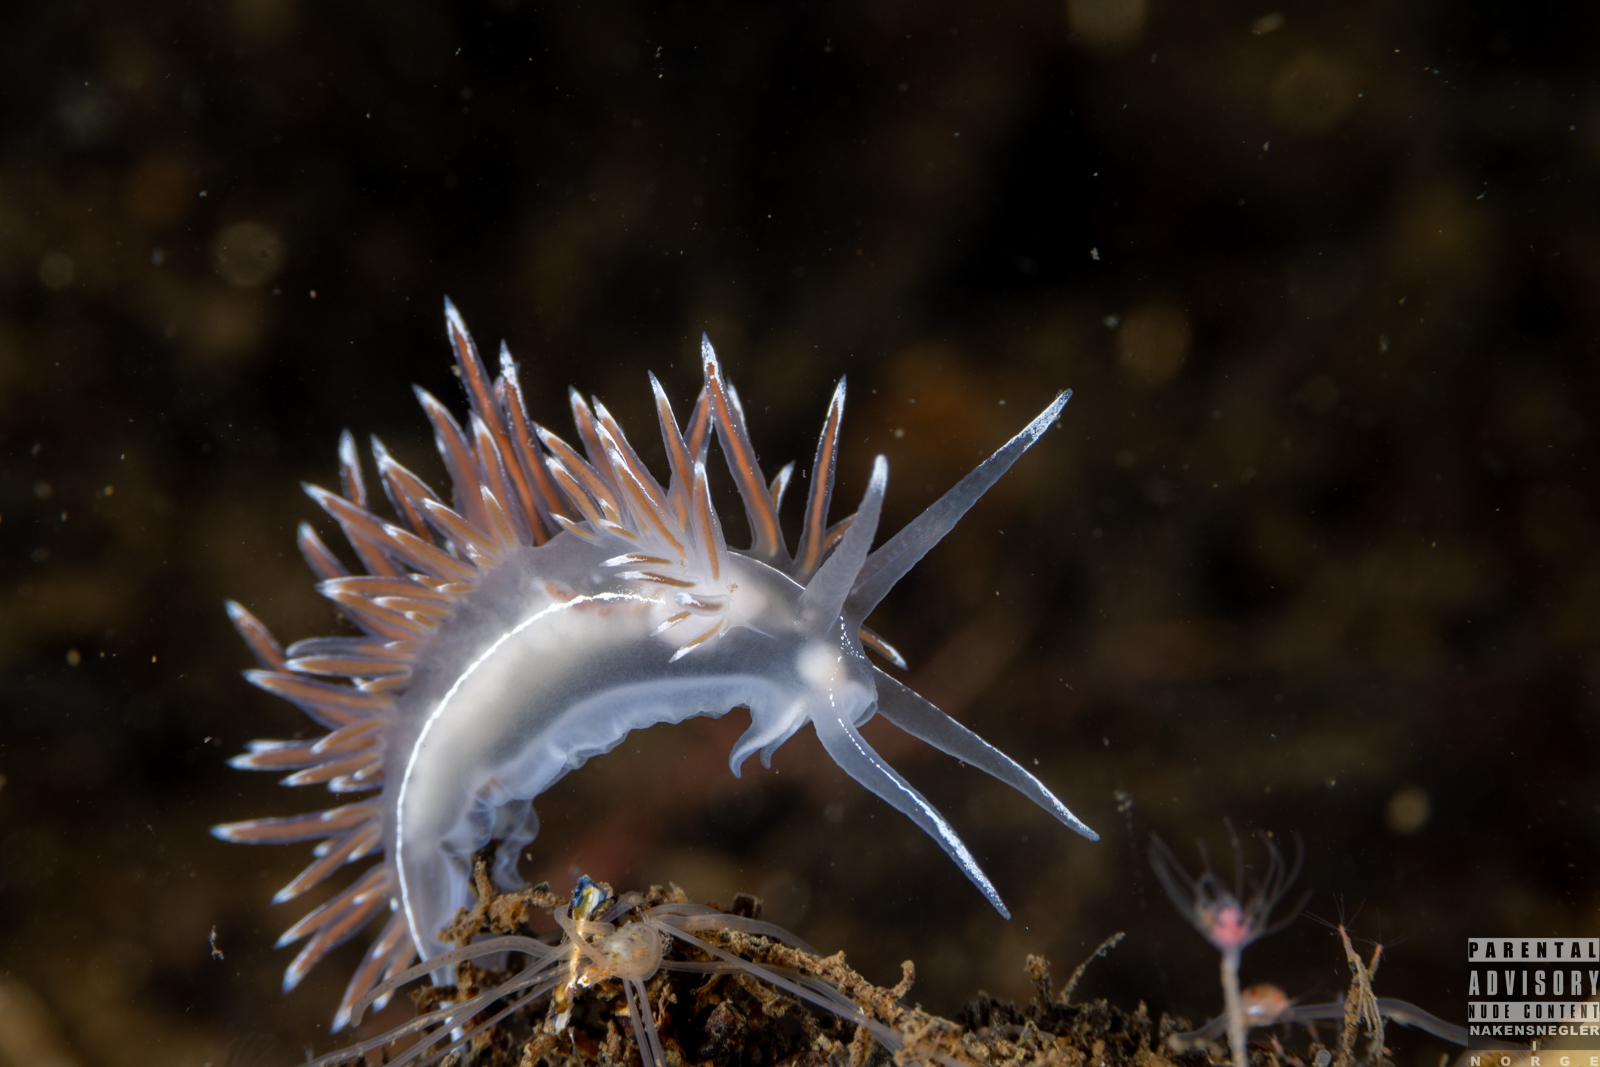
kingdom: Animalia
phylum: Mollusca
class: Gastropoda
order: Nudibranchia
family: Coryphellidae
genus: Coryphella
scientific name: Coryphella lineata
